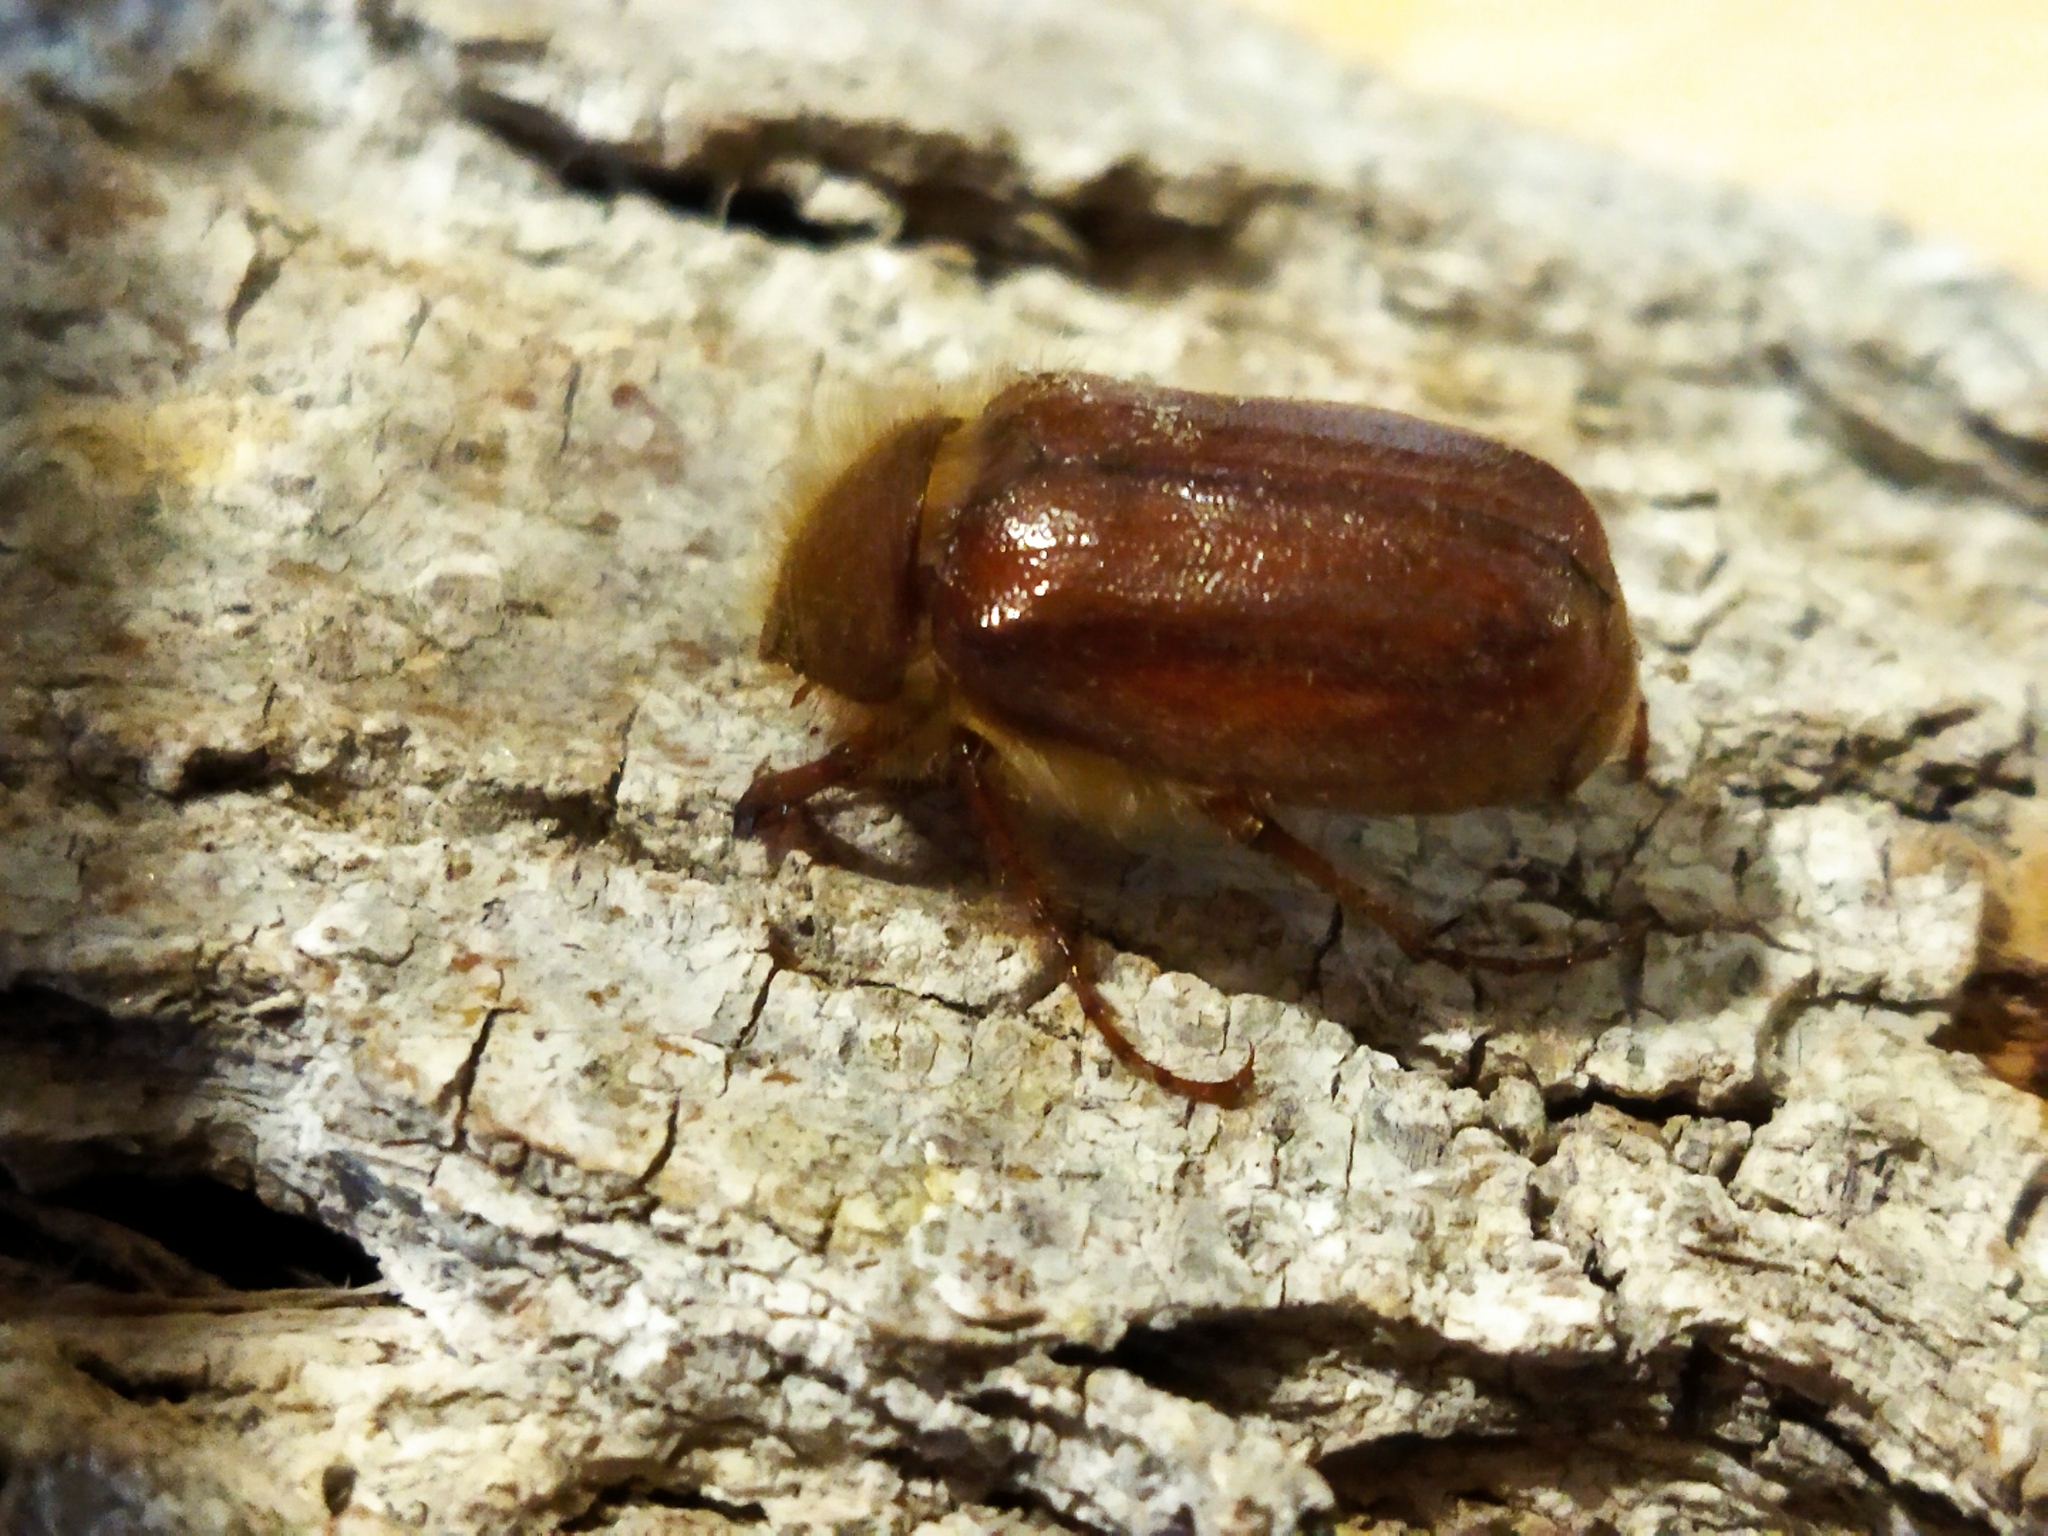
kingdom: Animalia
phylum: Arthropoda
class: Insecta
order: Coleoptera
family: Scarabaeidae
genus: Holochelus
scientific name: Holochelus aequinoctialis
